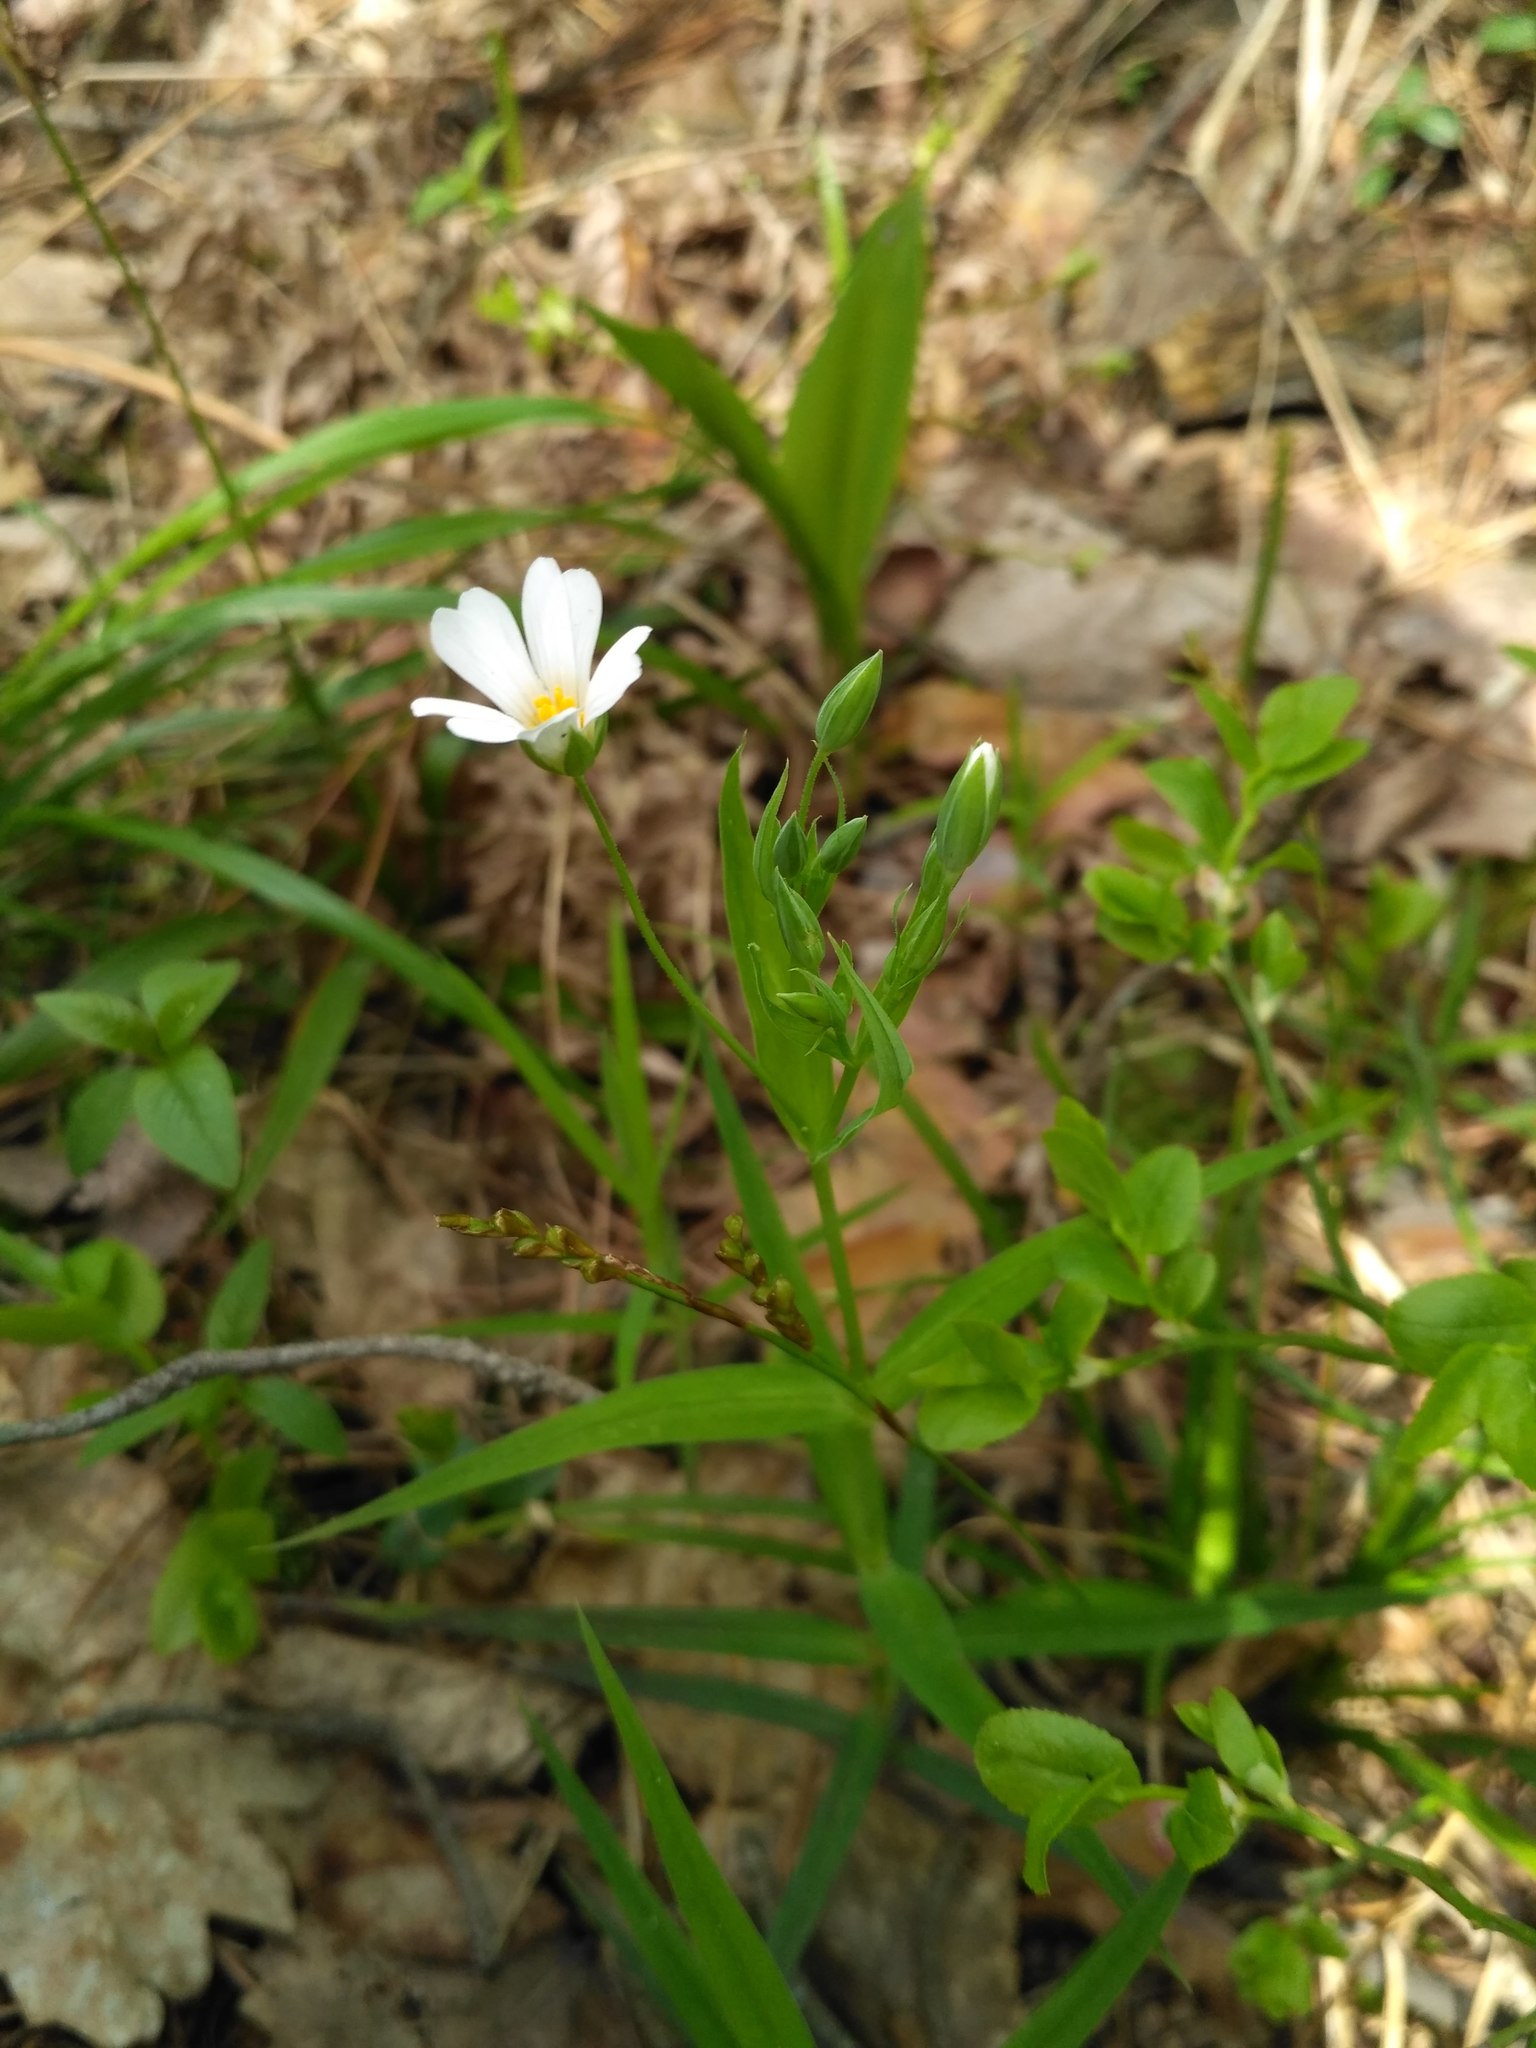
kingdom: Plantae
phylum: Tracheophyta
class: Magnoliopsida
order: Caryophyllales
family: Caryophyllaceae
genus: Rabelera
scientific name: Rabelera holostea
